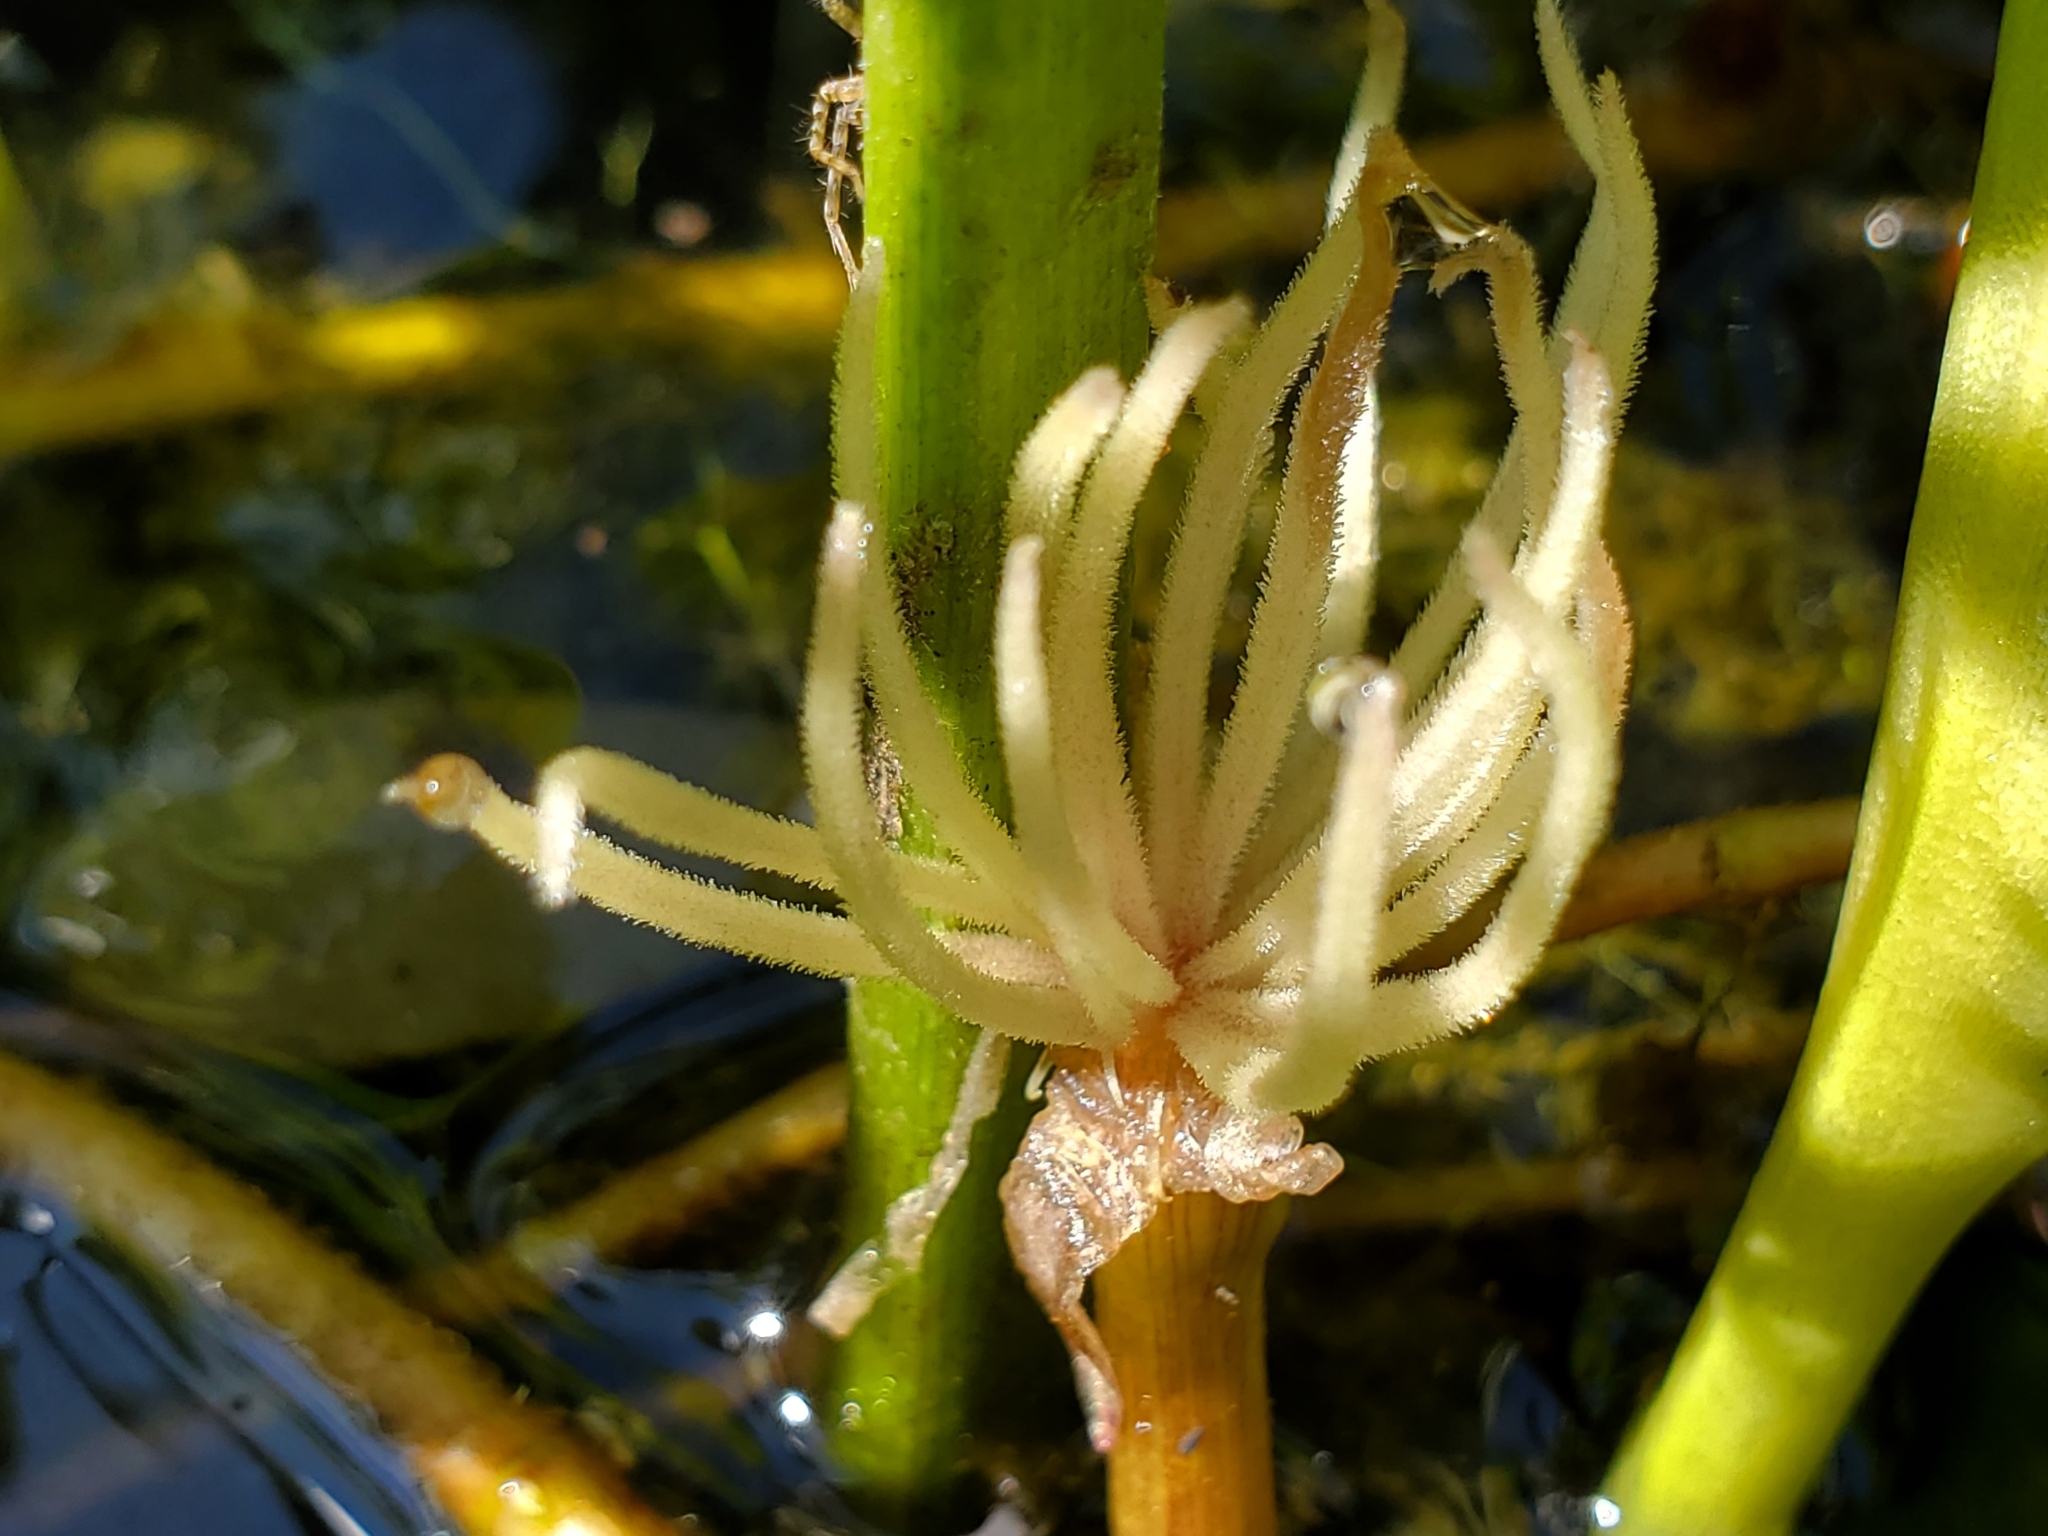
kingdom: Plantae
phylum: Tracheophyta
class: Liliopsida
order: Alismatales
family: Hydrocharitaceae
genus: Hydrocharis
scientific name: Hydrocharis spongia
